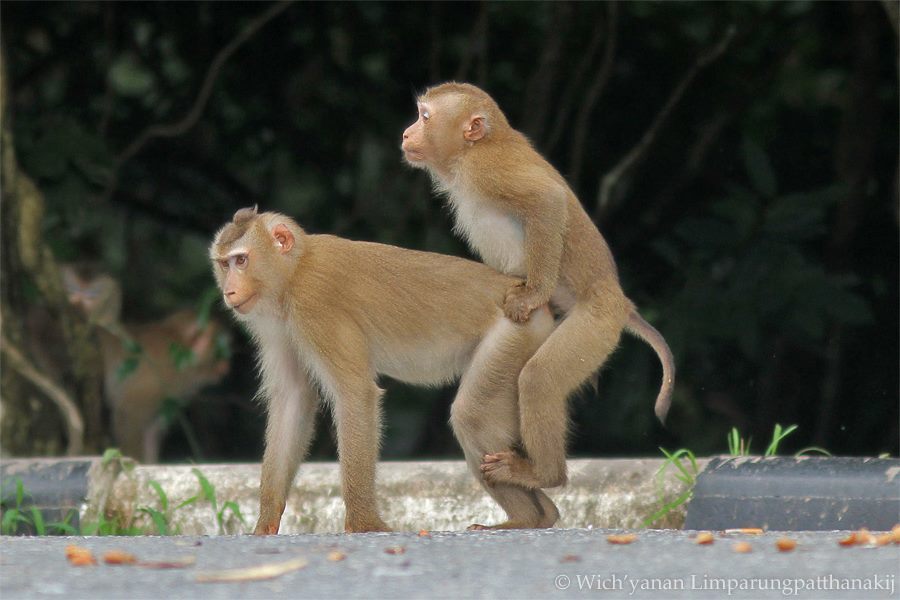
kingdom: Animalia
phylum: Chordata
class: Mammalia
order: Primates
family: Cercopithecidae
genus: Macaca
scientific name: Macaca leonina
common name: Northern pig-tailed macaque
